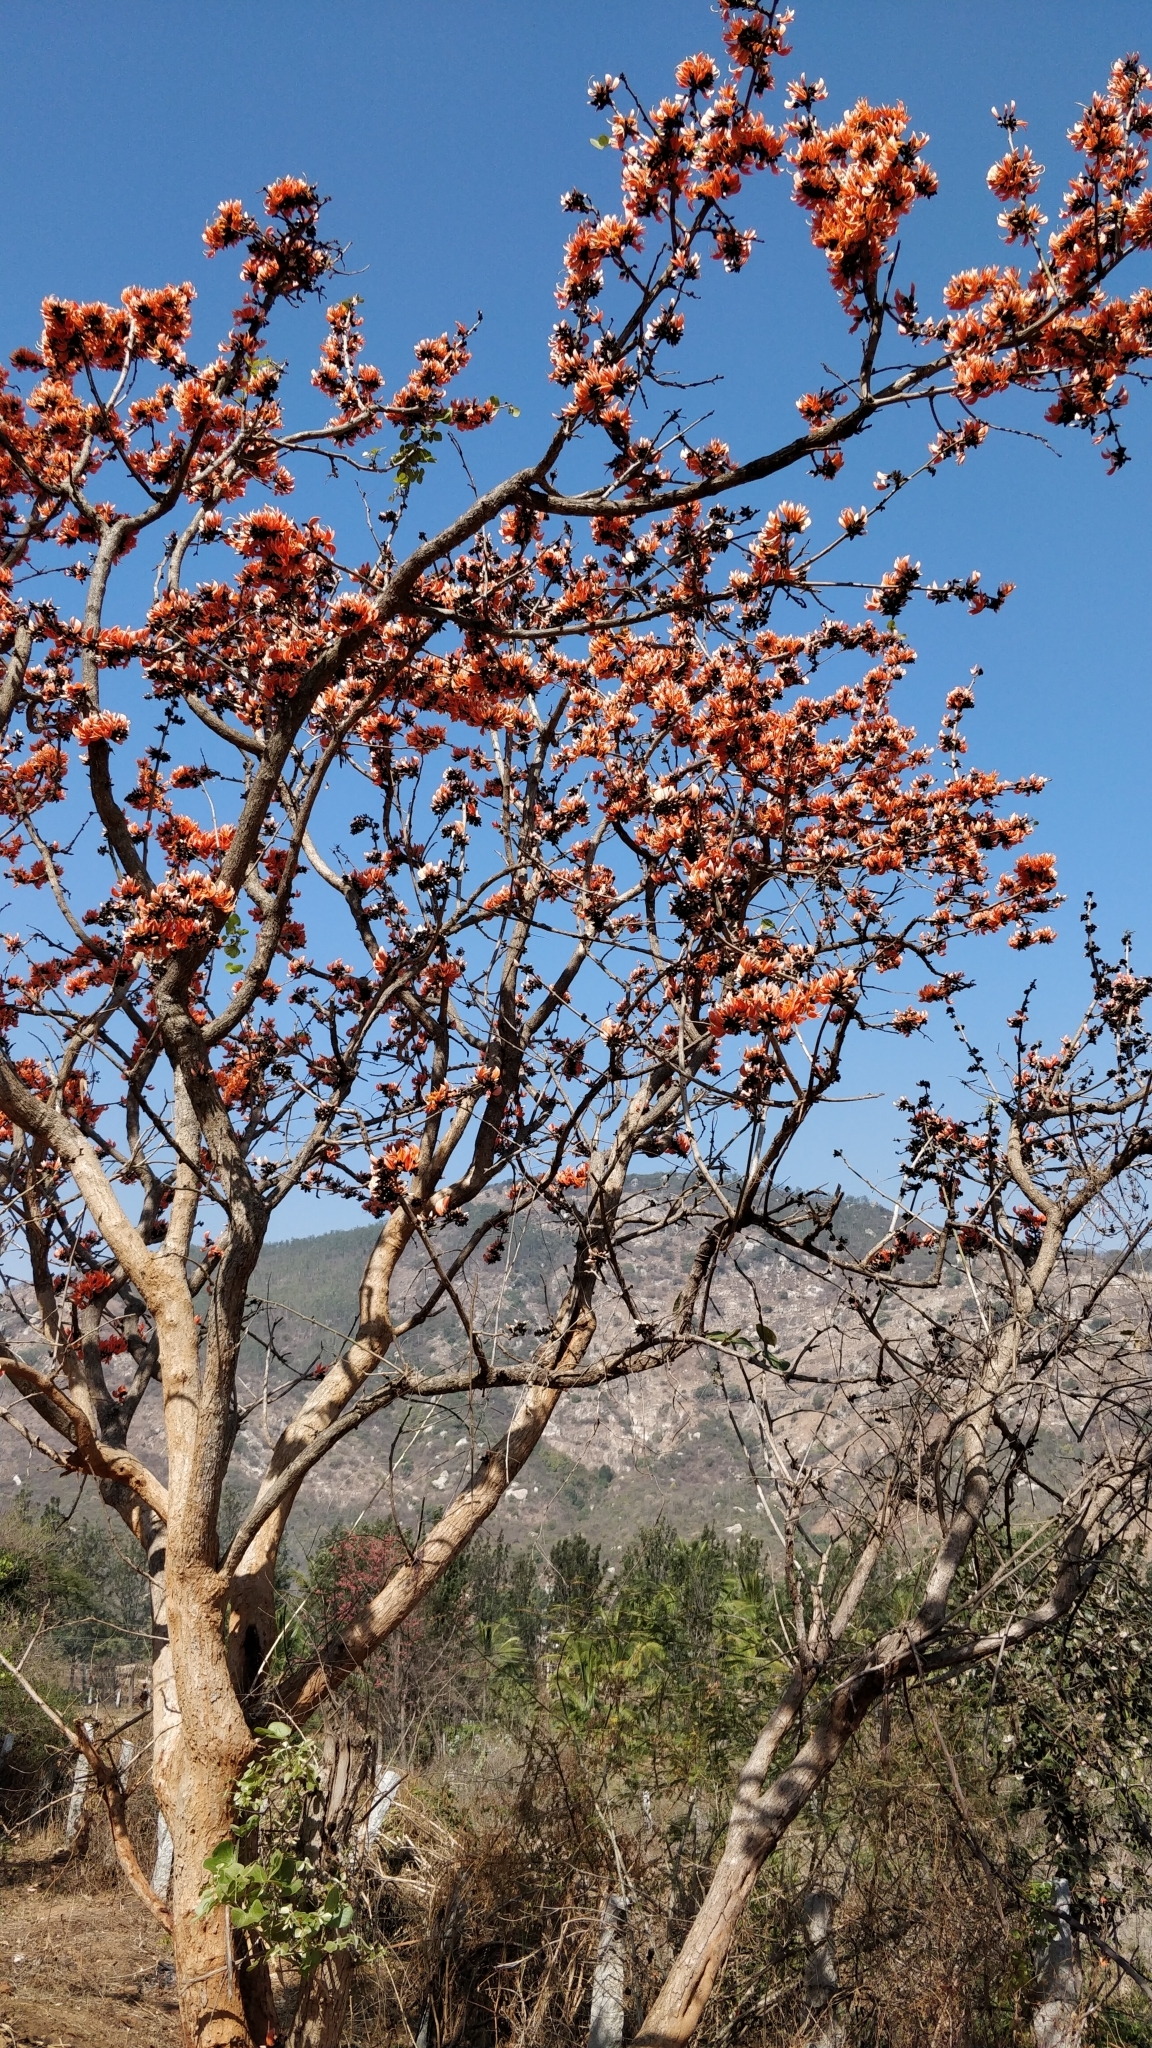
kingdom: Plantae
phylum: Tracheophyta
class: Magnoliopsida
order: Fabales
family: Fabaceae
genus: Butea
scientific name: Butea monosperma
